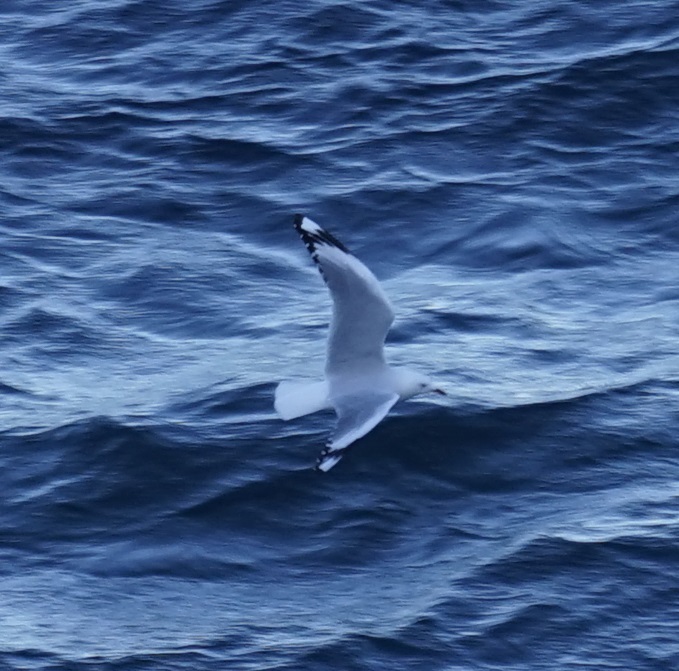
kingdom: Animalia
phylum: Chordata
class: Aves
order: Charadriiformes
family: Laridae
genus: Chroicocephalus
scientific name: Chroicocephalus novaehollandiae
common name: Silver gull
